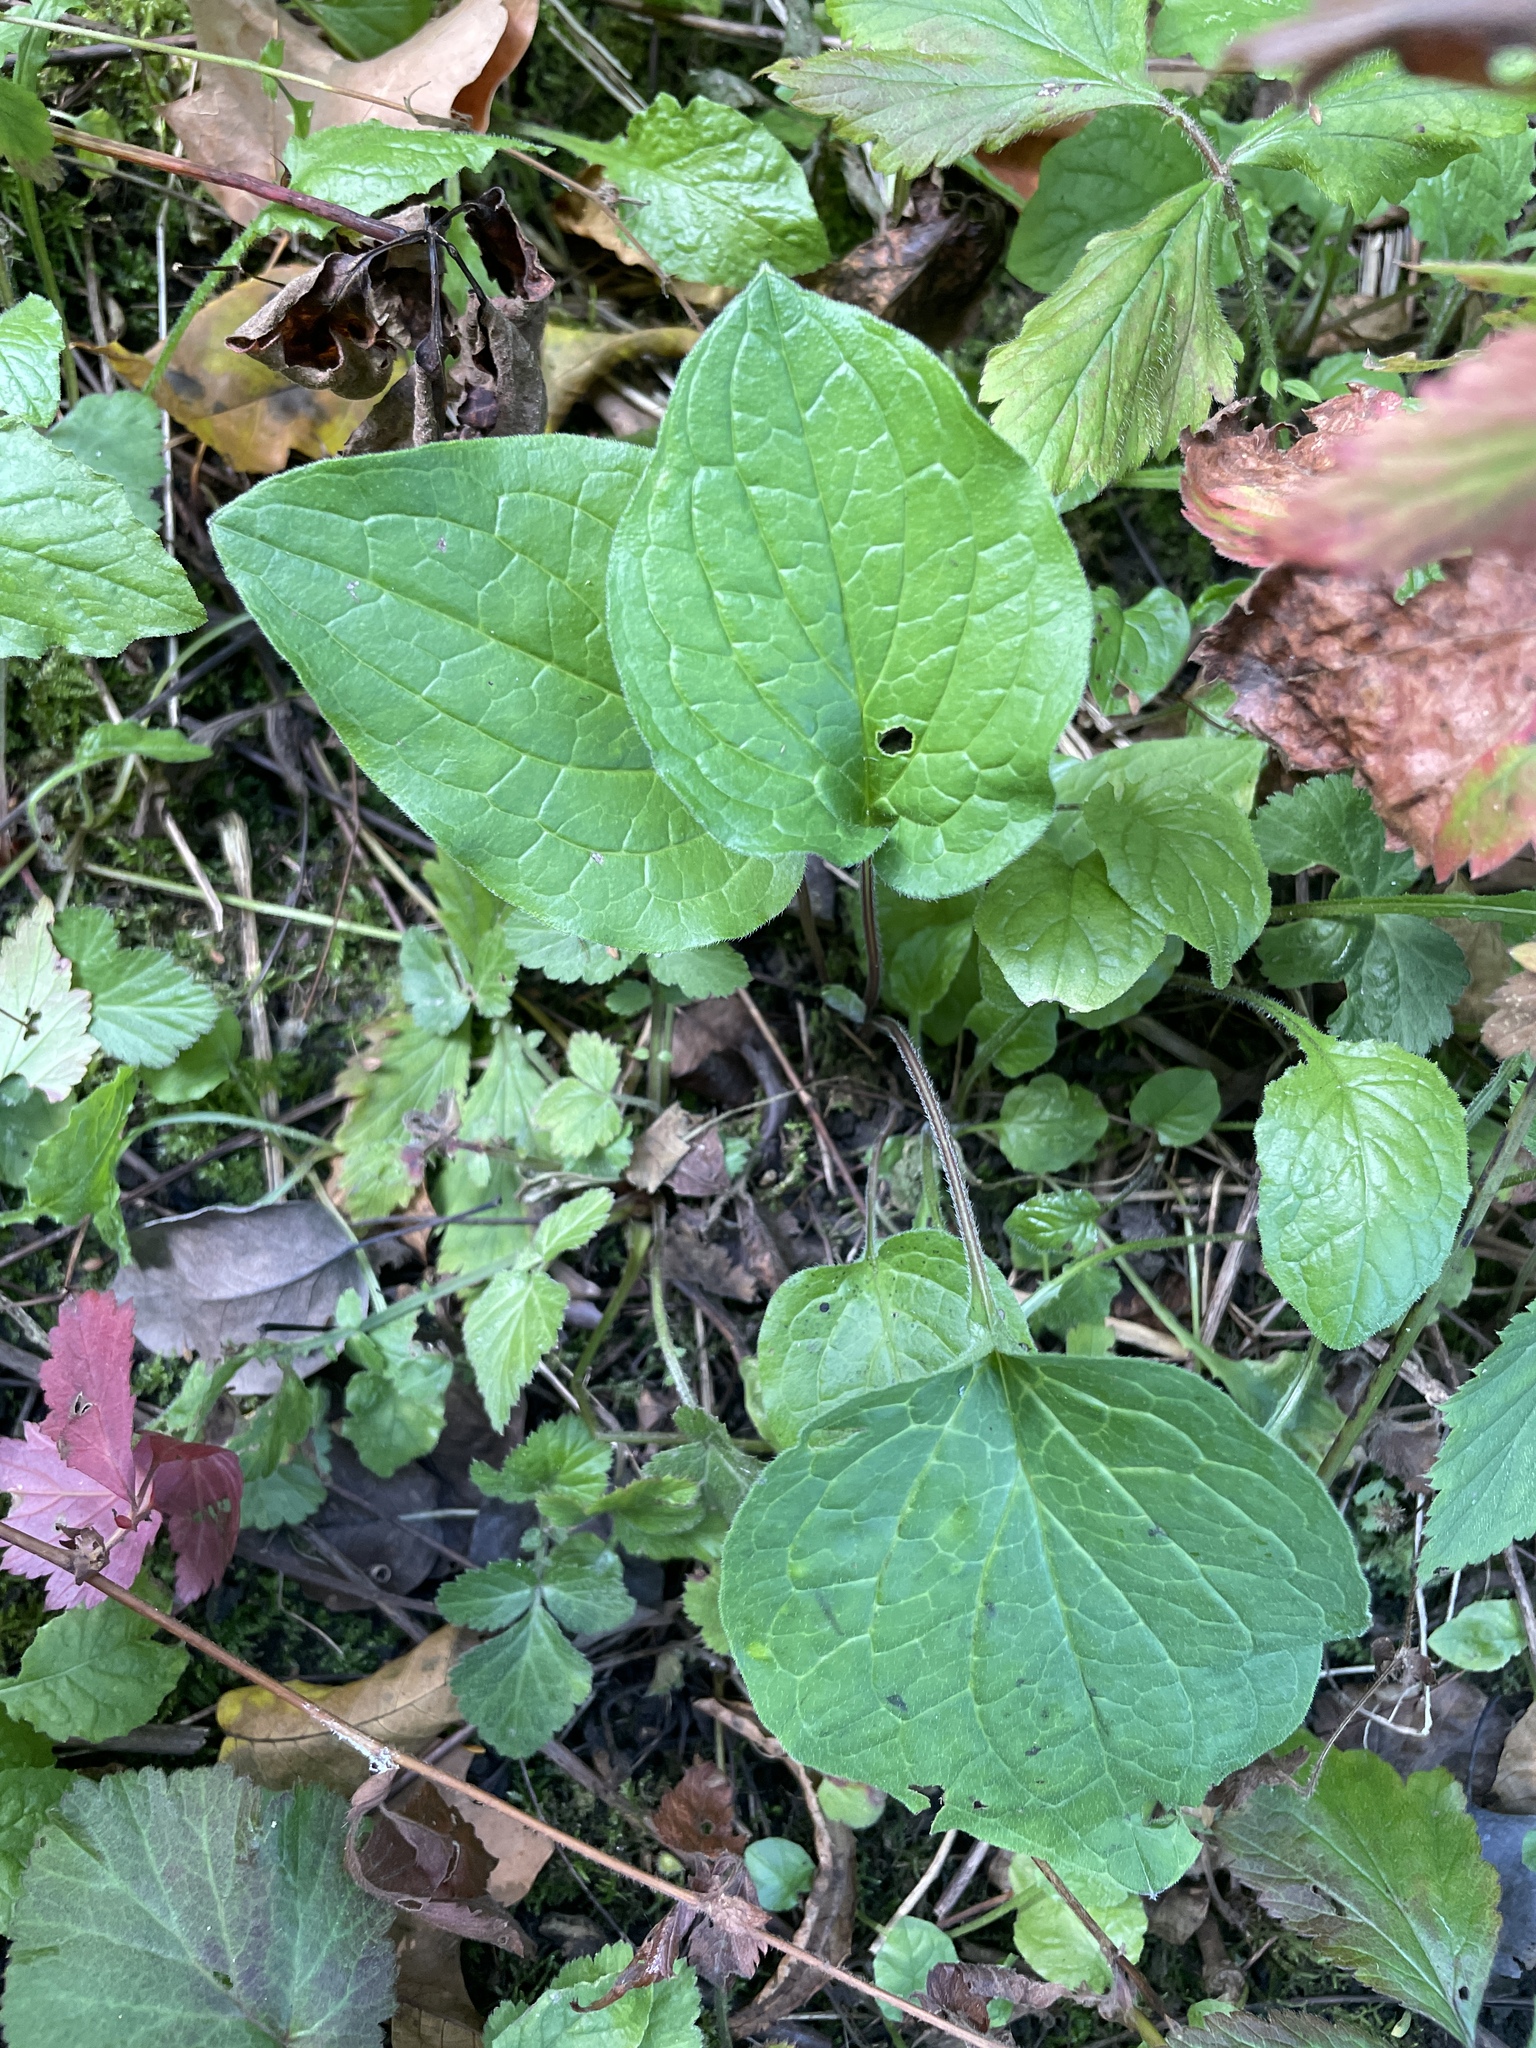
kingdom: Plantae
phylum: Tracheophyta
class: Magnoliopsida
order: Boraginales
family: Boraginaceae
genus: Hackelia
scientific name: Hackelia virginiana
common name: Beggar's-lice
